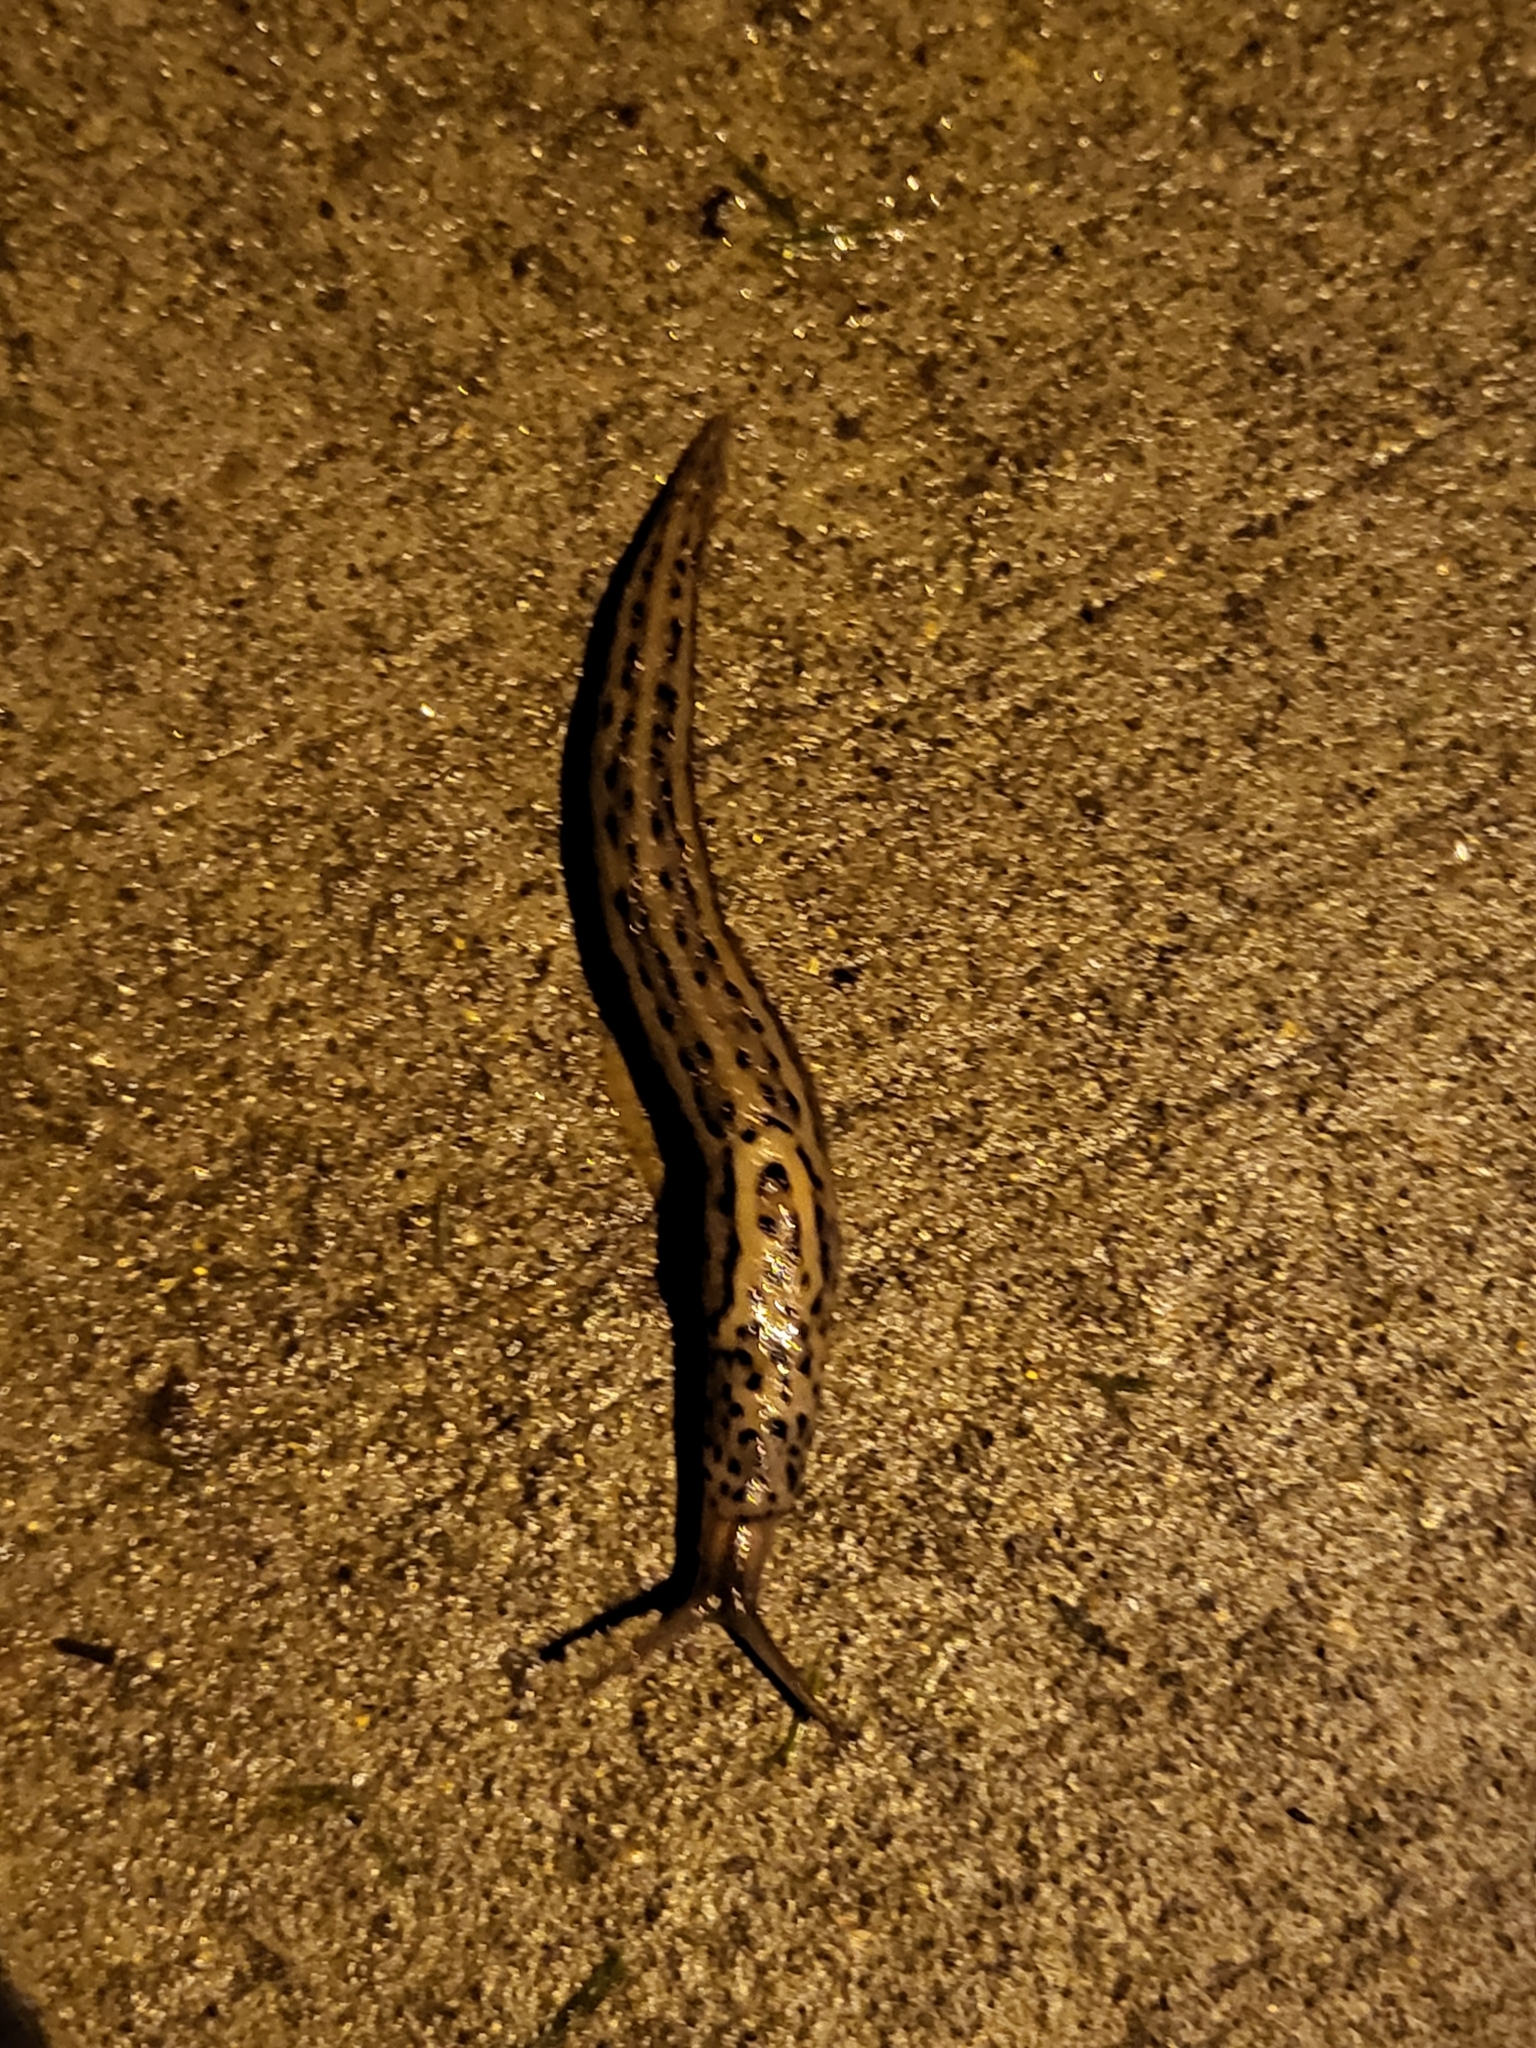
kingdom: Animalia
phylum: Mollusca
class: Gastropoda
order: Stylommatophora
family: Limacidae
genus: Limax
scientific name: Limax maximus
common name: Great grey slug
